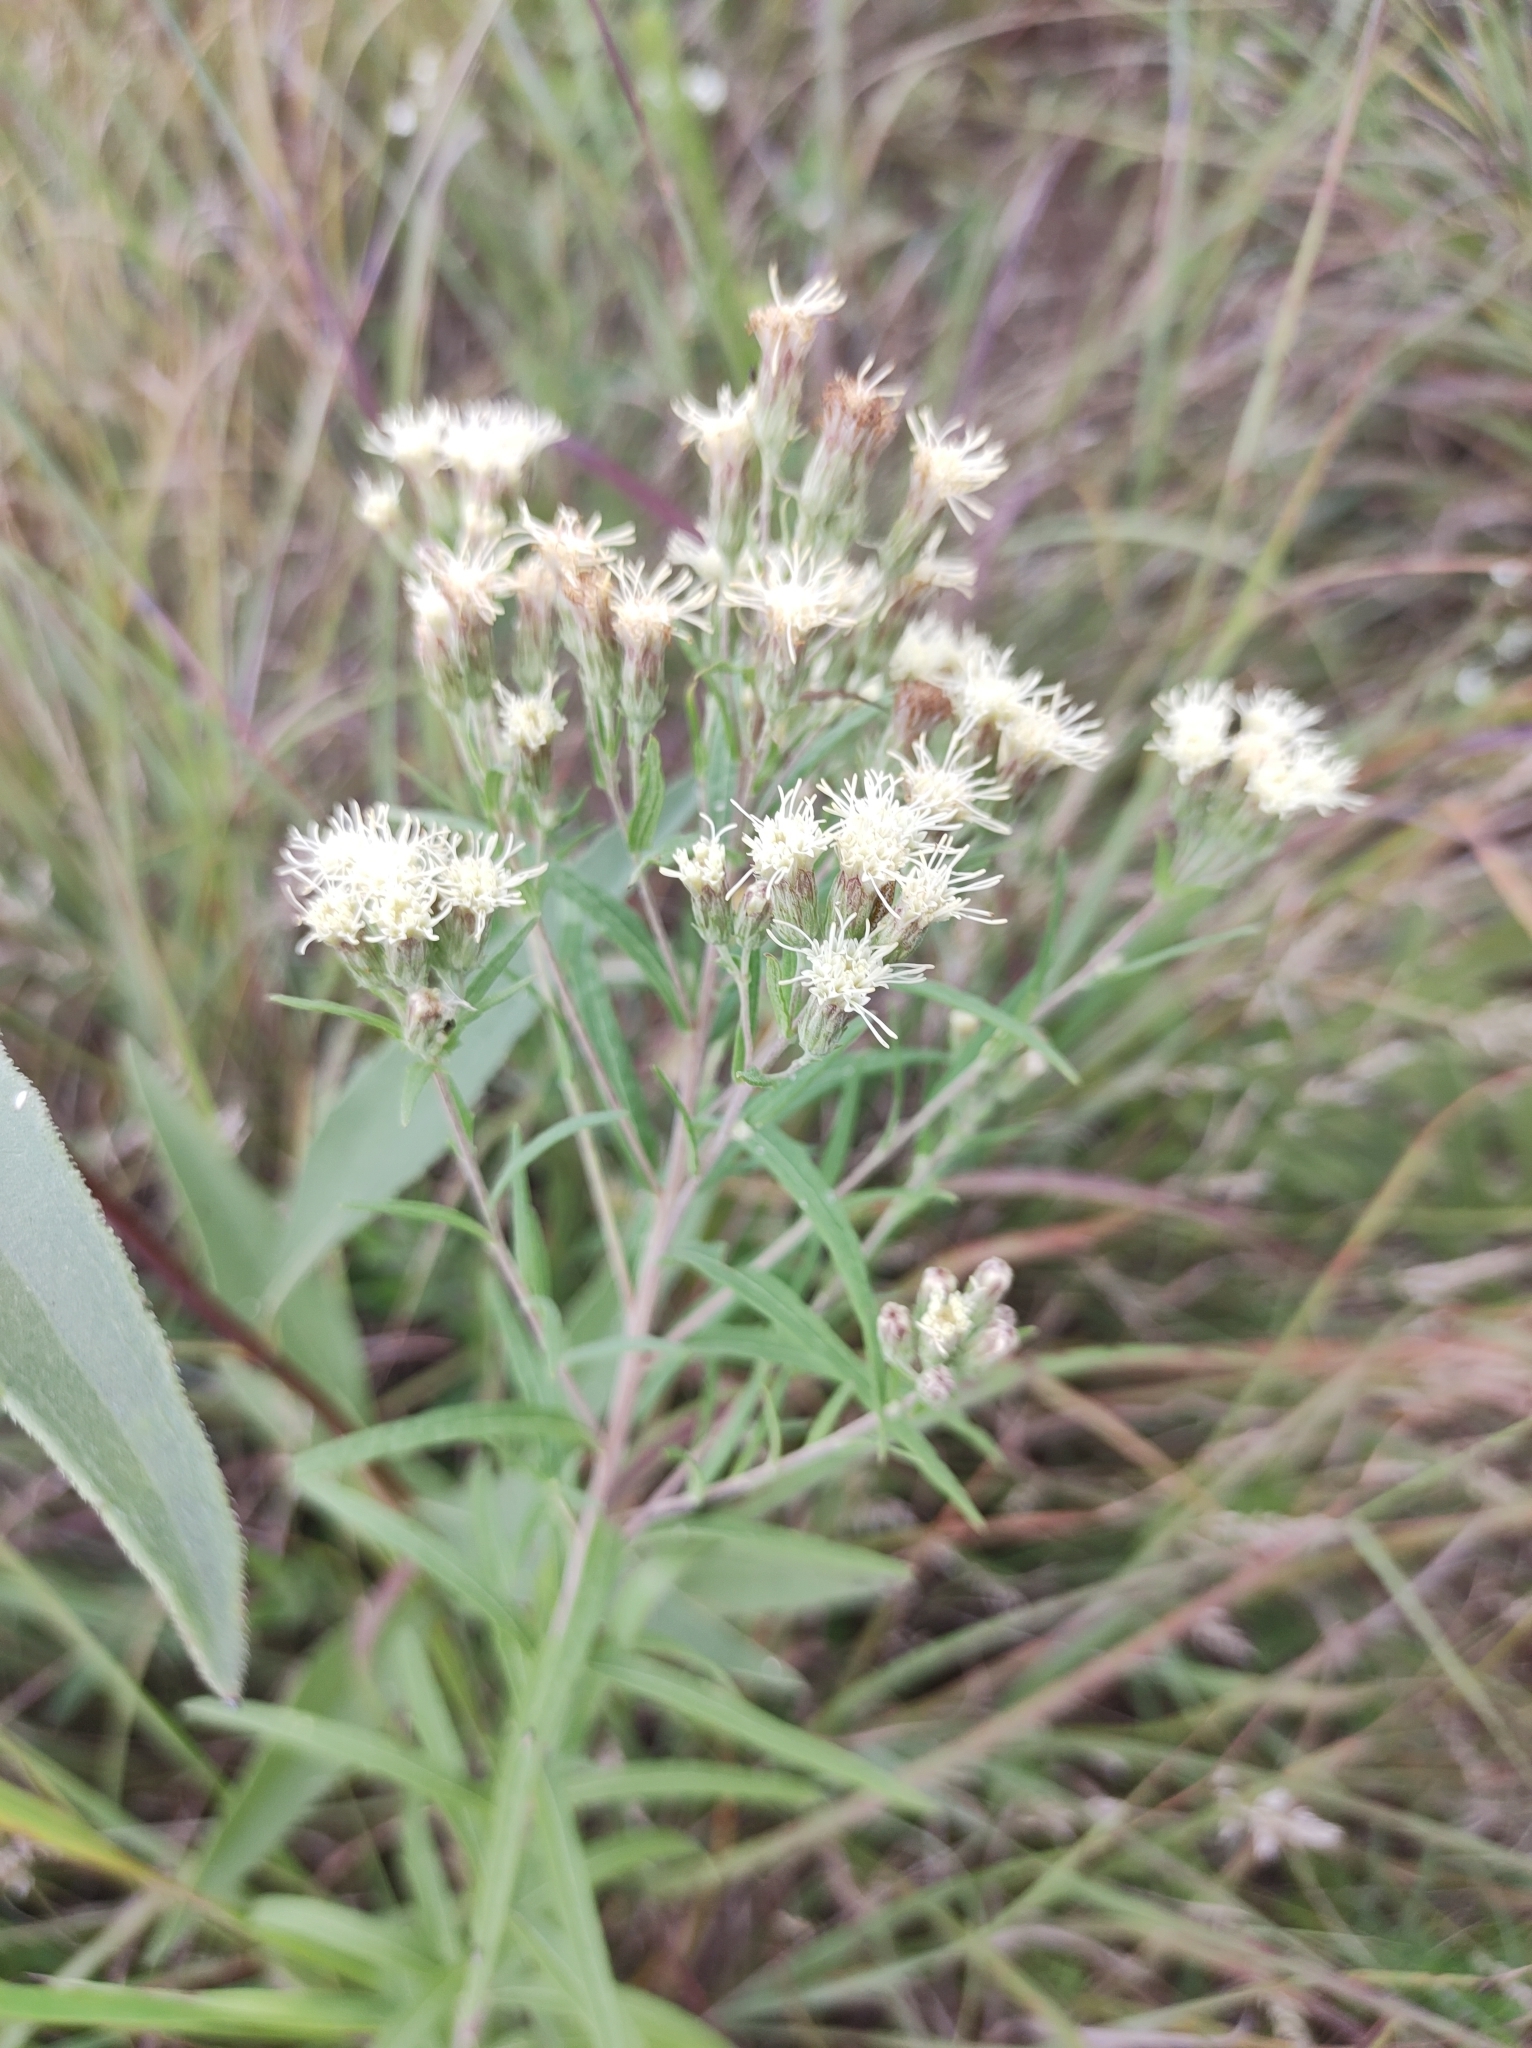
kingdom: Plantae
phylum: Tracheophyta
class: Magnoliopsida
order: Asterales
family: Asteraceae
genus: Brickellia
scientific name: Brickellia eupatorioides
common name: False boneset
